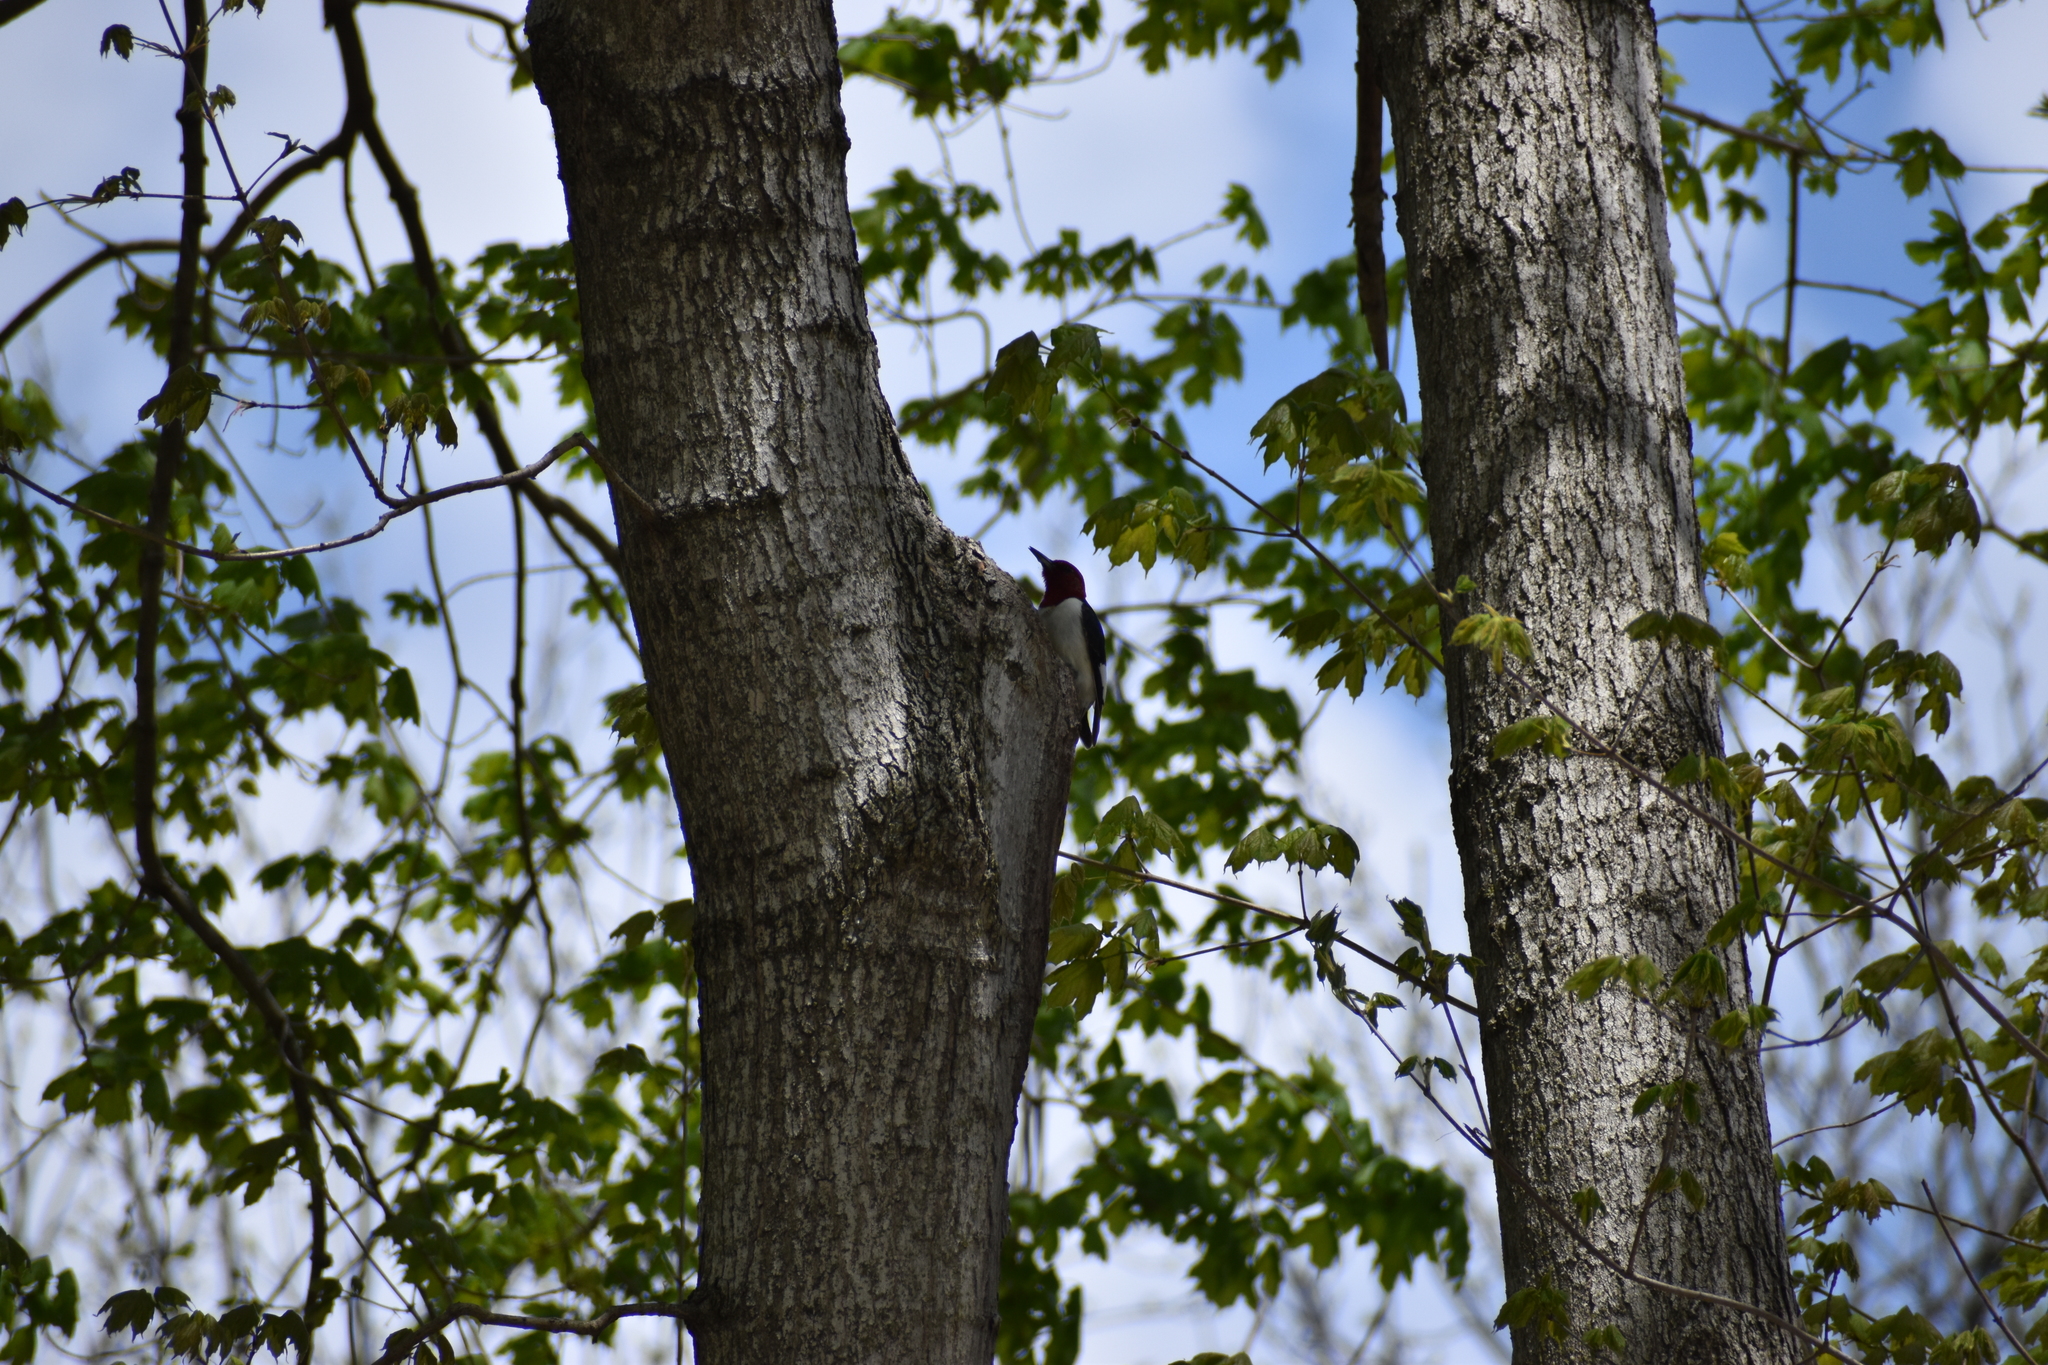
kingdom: Animalia
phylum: Chordata
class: Aves
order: Piciformes
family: Picidae
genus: Melanerpes
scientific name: Melanerpes erythrocephalus
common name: Red-headed woodpecker
